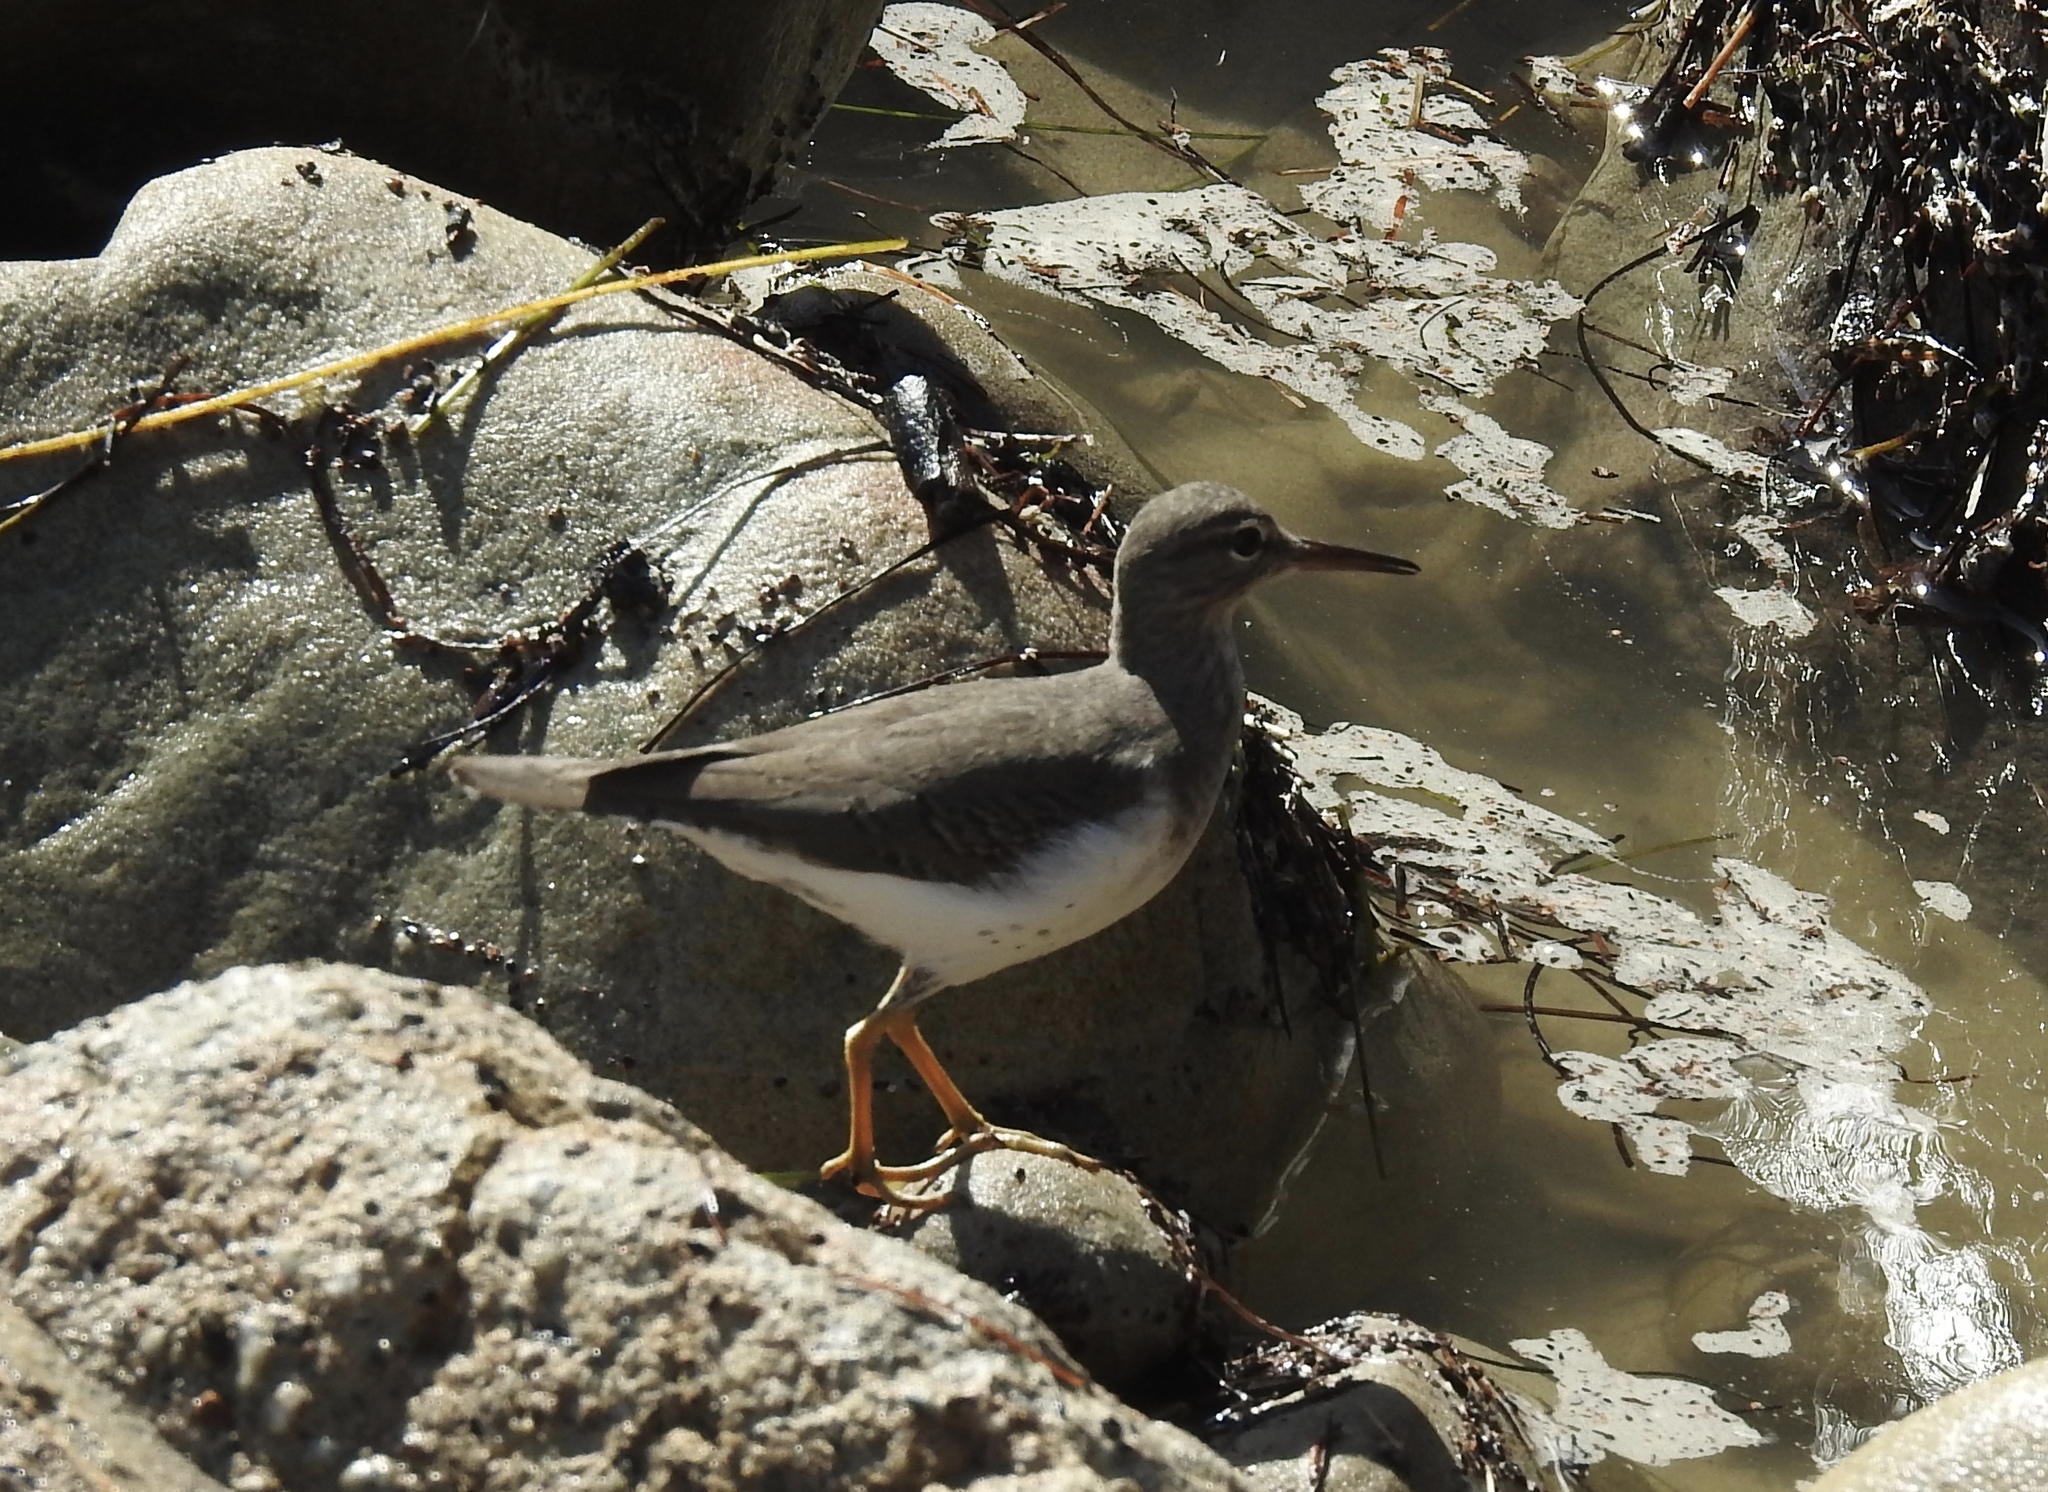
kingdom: Animalia
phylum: Chordata
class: Aves
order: Charadriiformes
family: Scolopacidae
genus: Actitis
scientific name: Actitis macularius
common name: Spotted sandpiper
